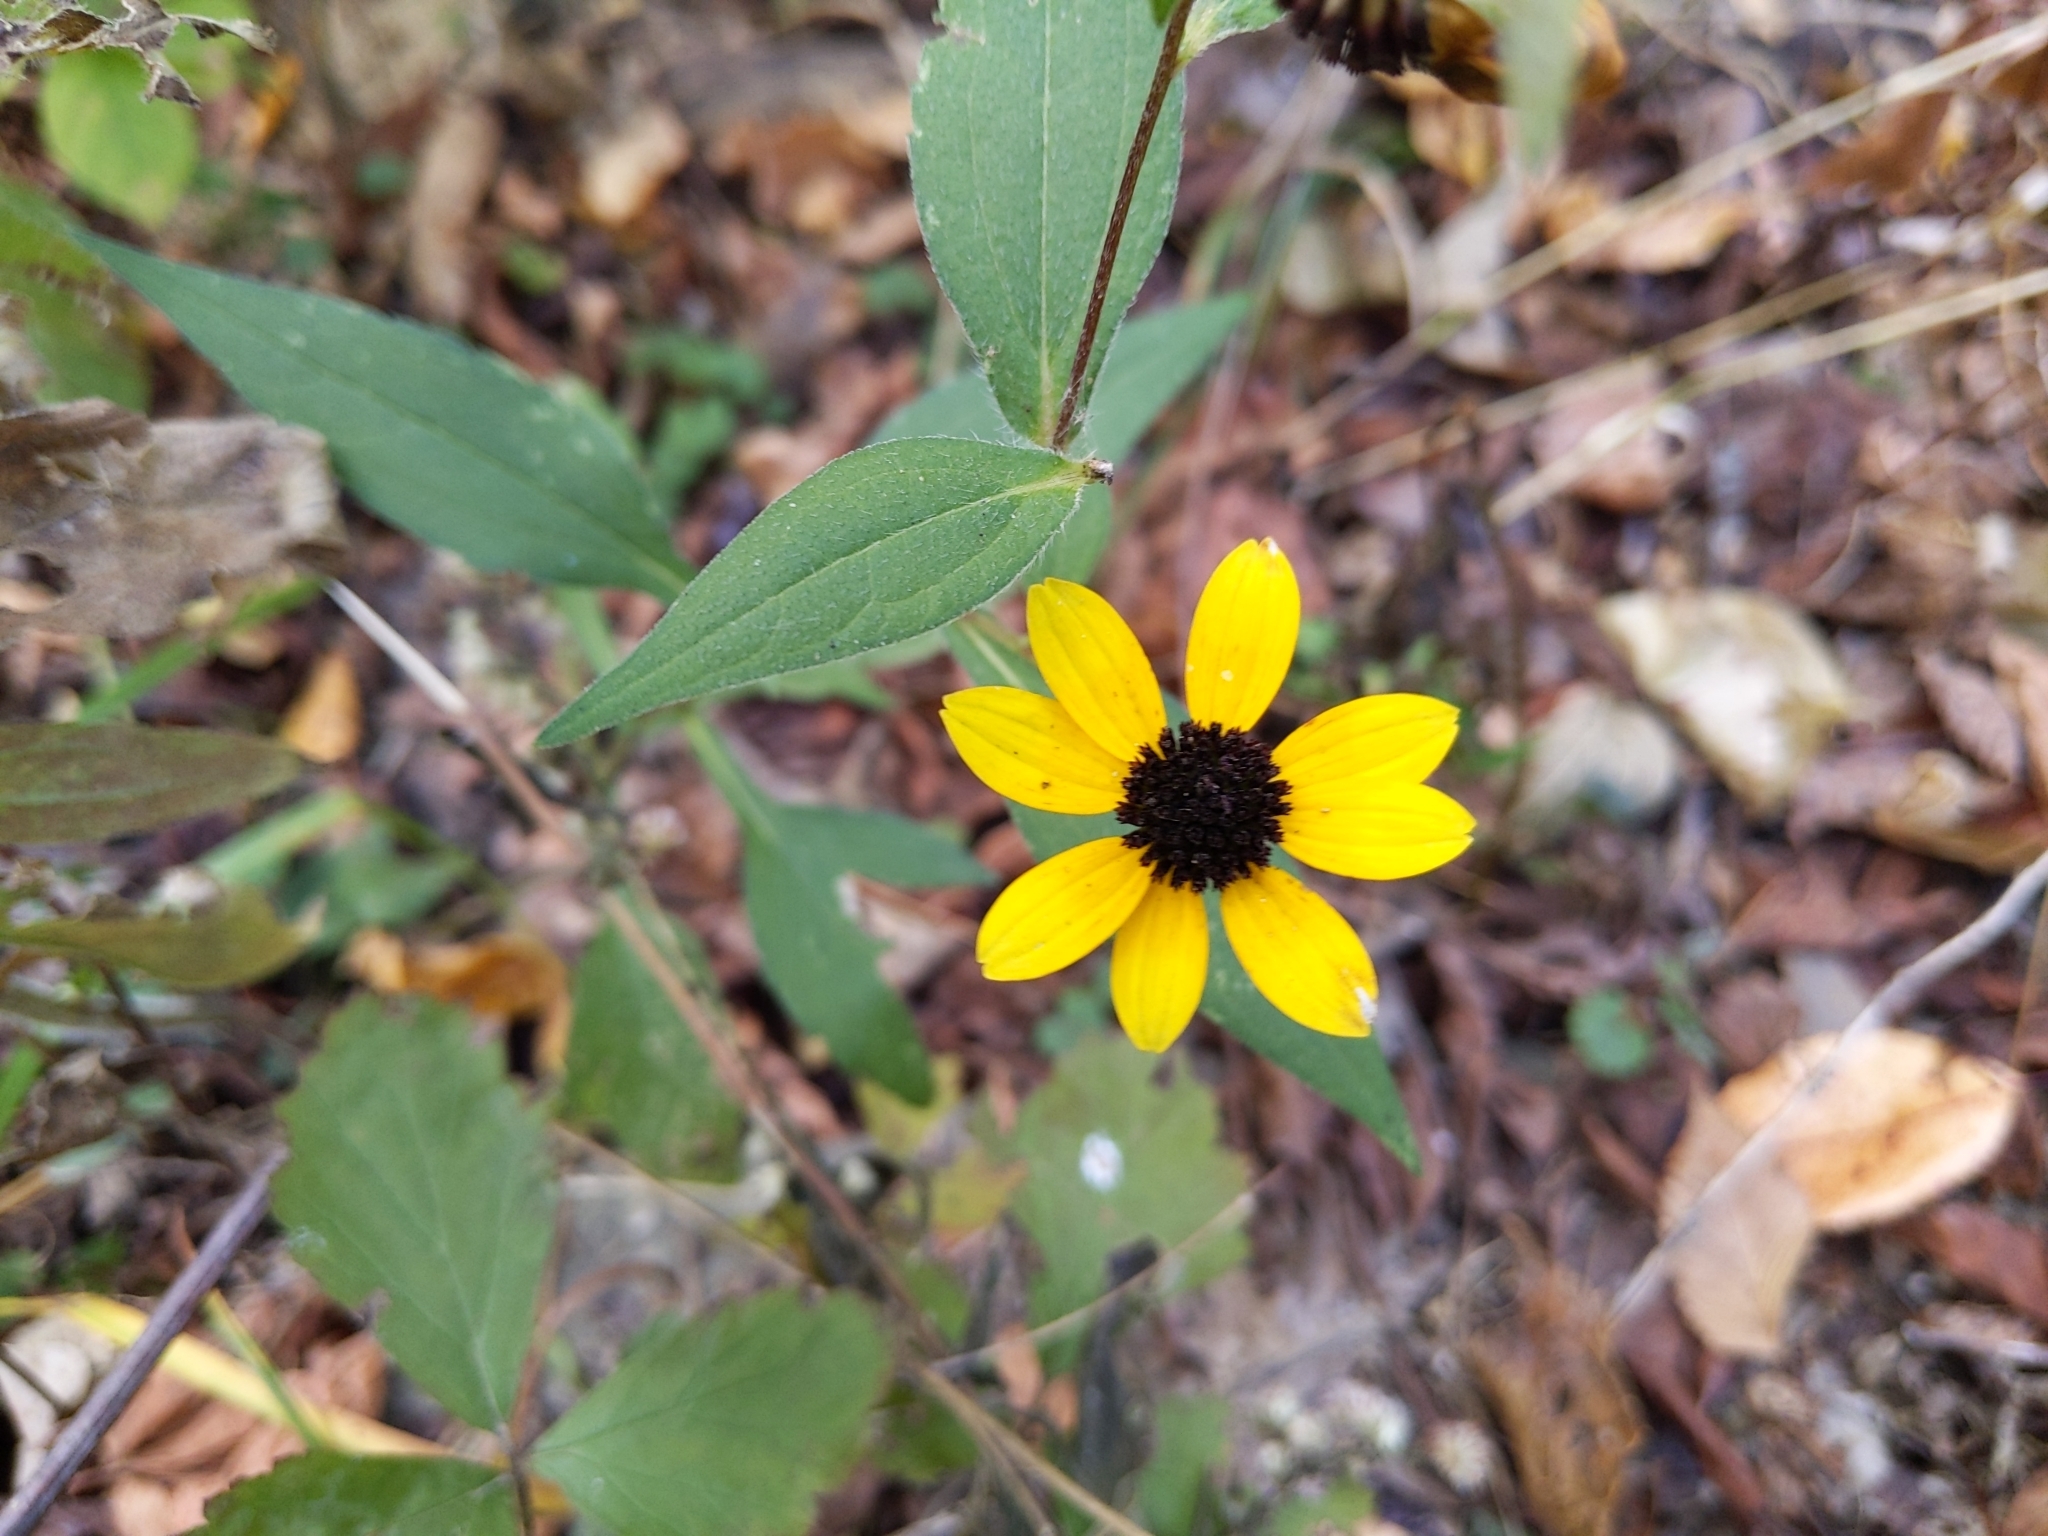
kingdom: Plantae
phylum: Tracheophyta
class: Magnoliopsida
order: Asterales
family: Asteraceae
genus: Rudbeckia
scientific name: Rudbeckia triloba
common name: Thin-leaved coneflower
